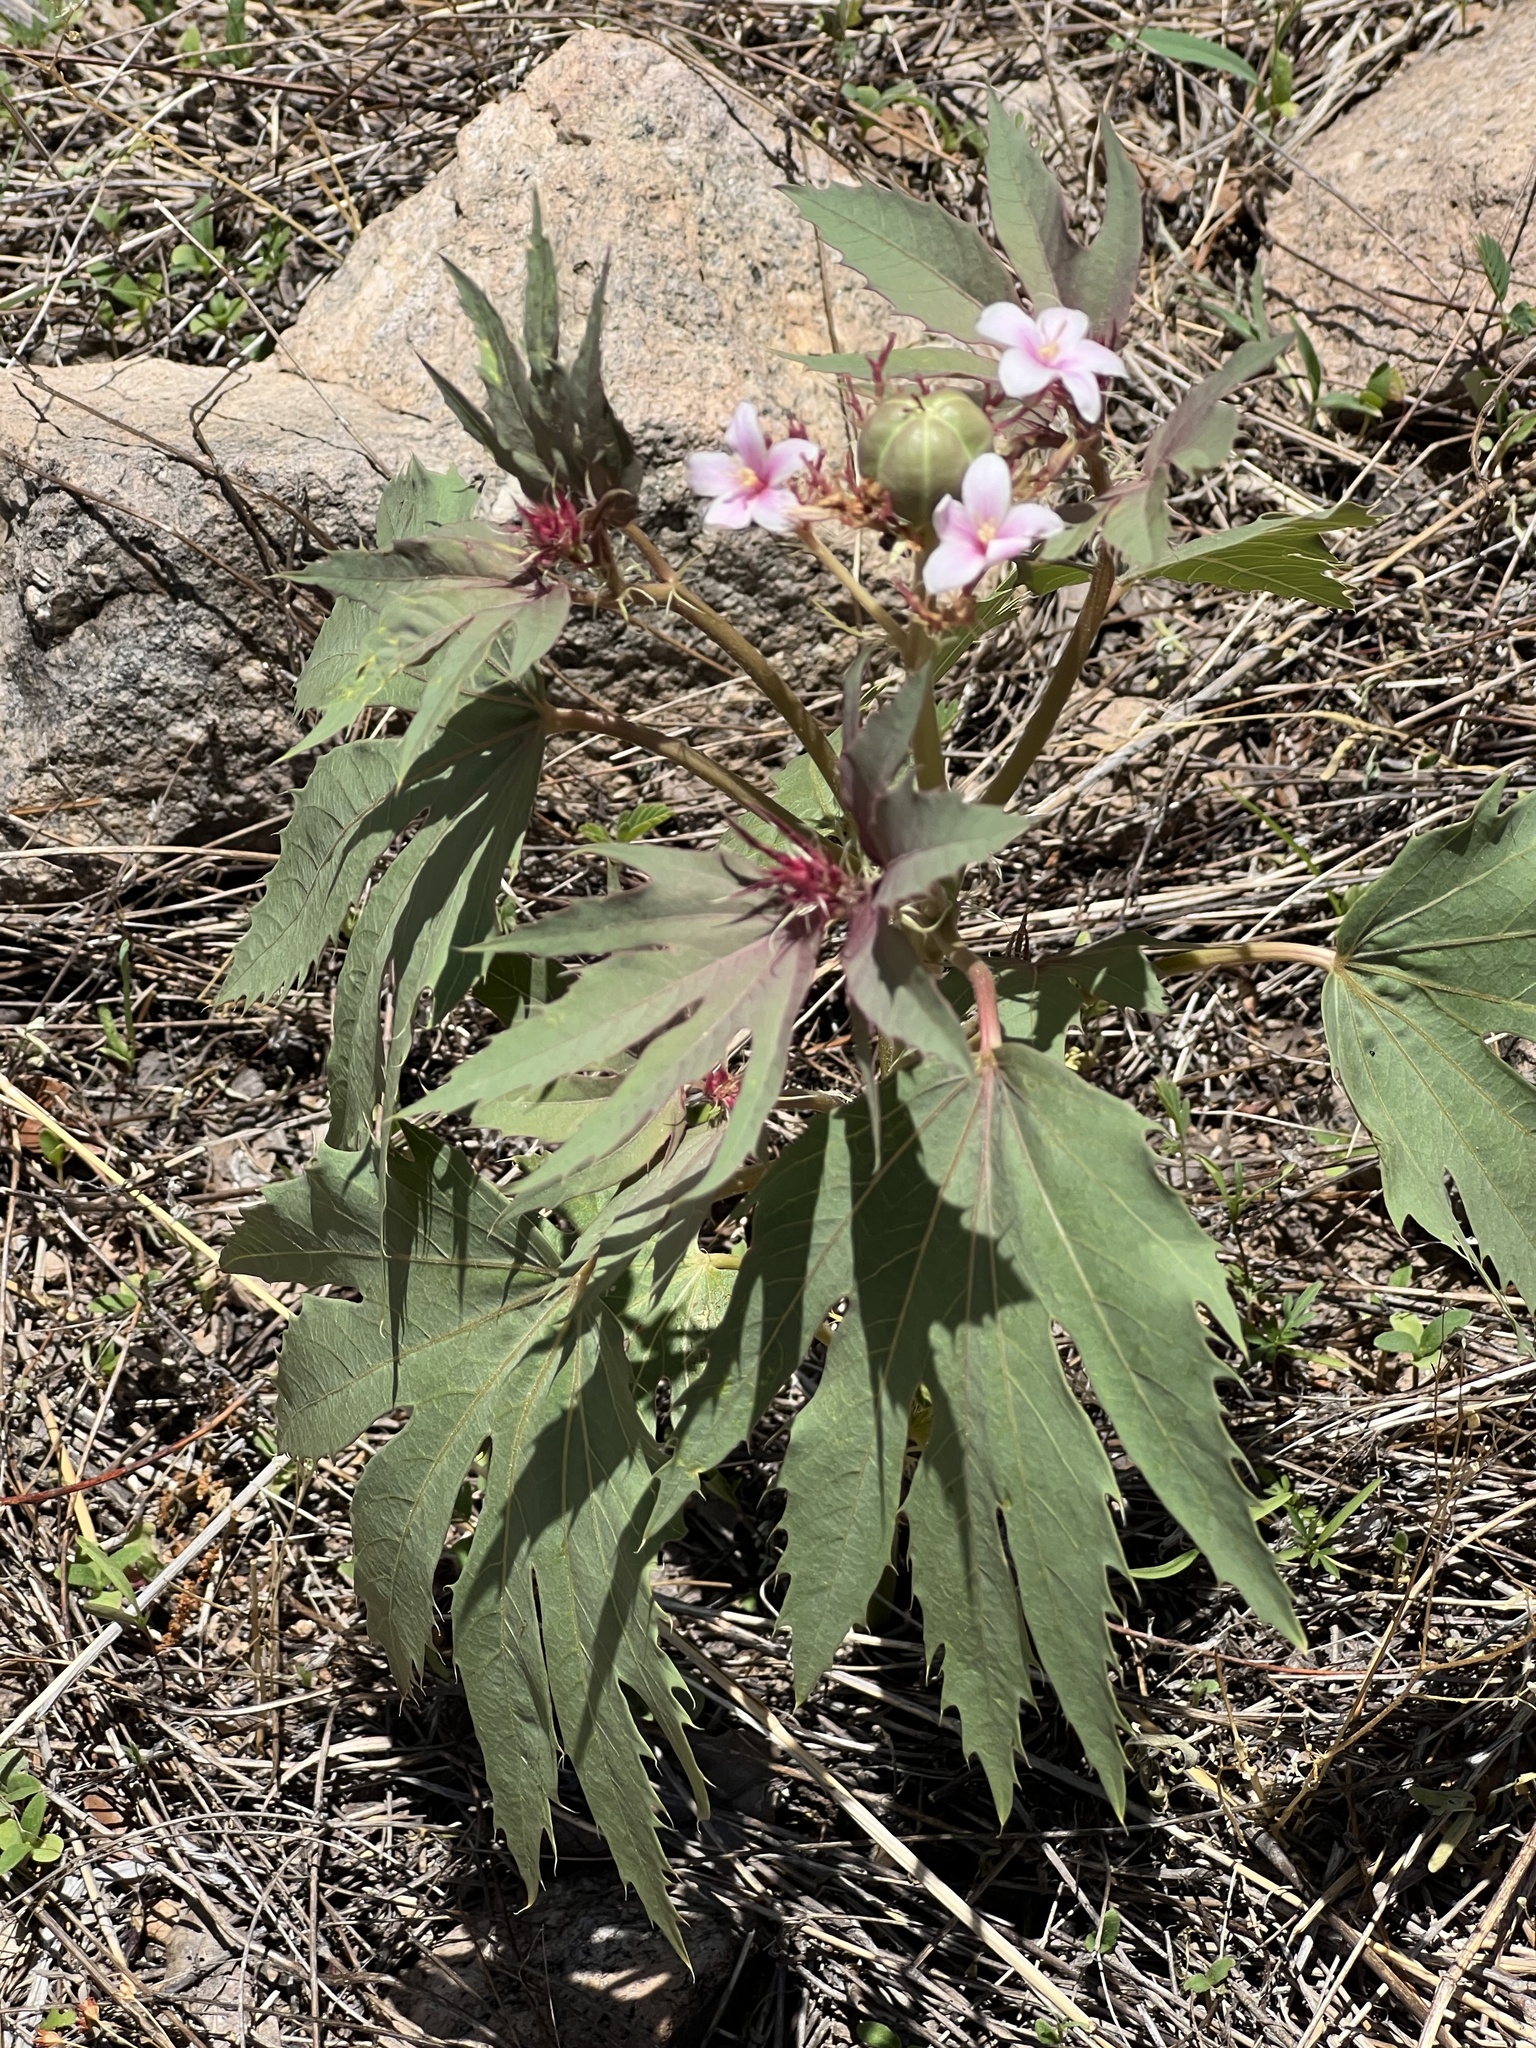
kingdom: Plantae
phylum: Tracheophyta
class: Magnoliopsida
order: Malpighiales
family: Euphorbiaceae
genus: Jatropha
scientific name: Jatropha macrorhiza
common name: Ragged nettlespurge
